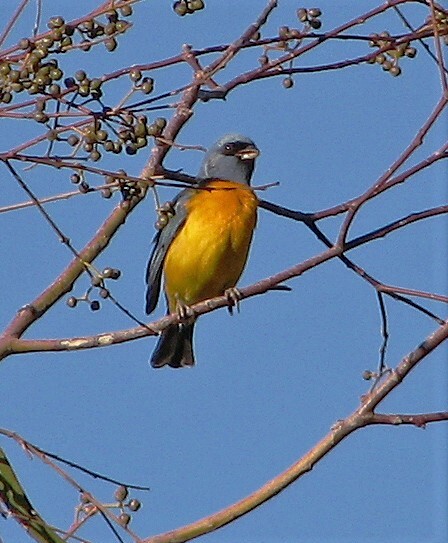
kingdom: Animalia
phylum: Chordata
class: Aves
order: Passeriformes
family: Thraupidae
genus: Rauenia
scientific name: Rauenia bonariensis
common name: Blue-and-yellow tanager
